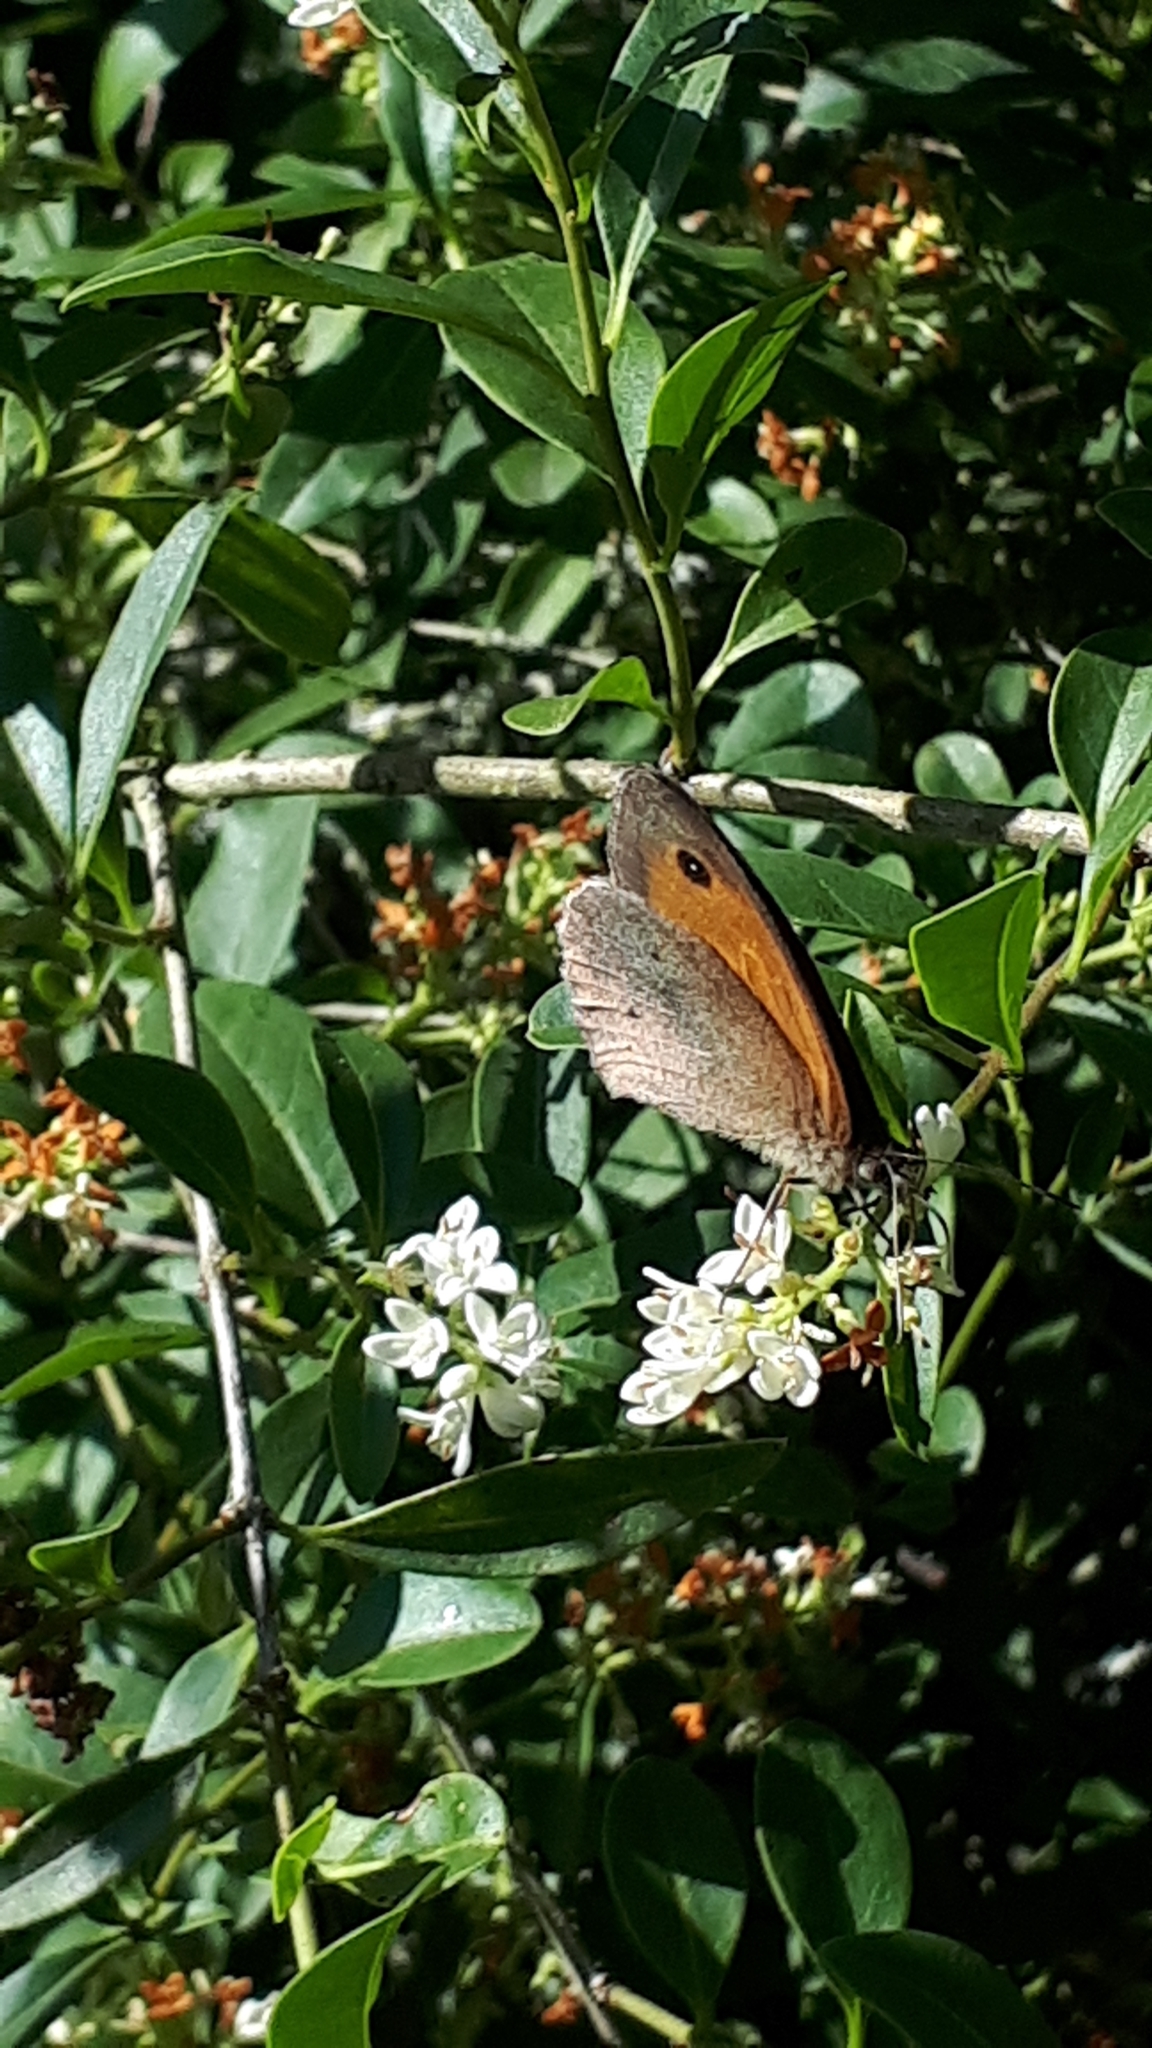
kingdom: Animalia
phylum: Arthropoda
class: Insecta
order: Lepidoptera
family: Nymphalidae
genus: Maniola
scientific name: Maniola jurtina
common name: Meadow brown
